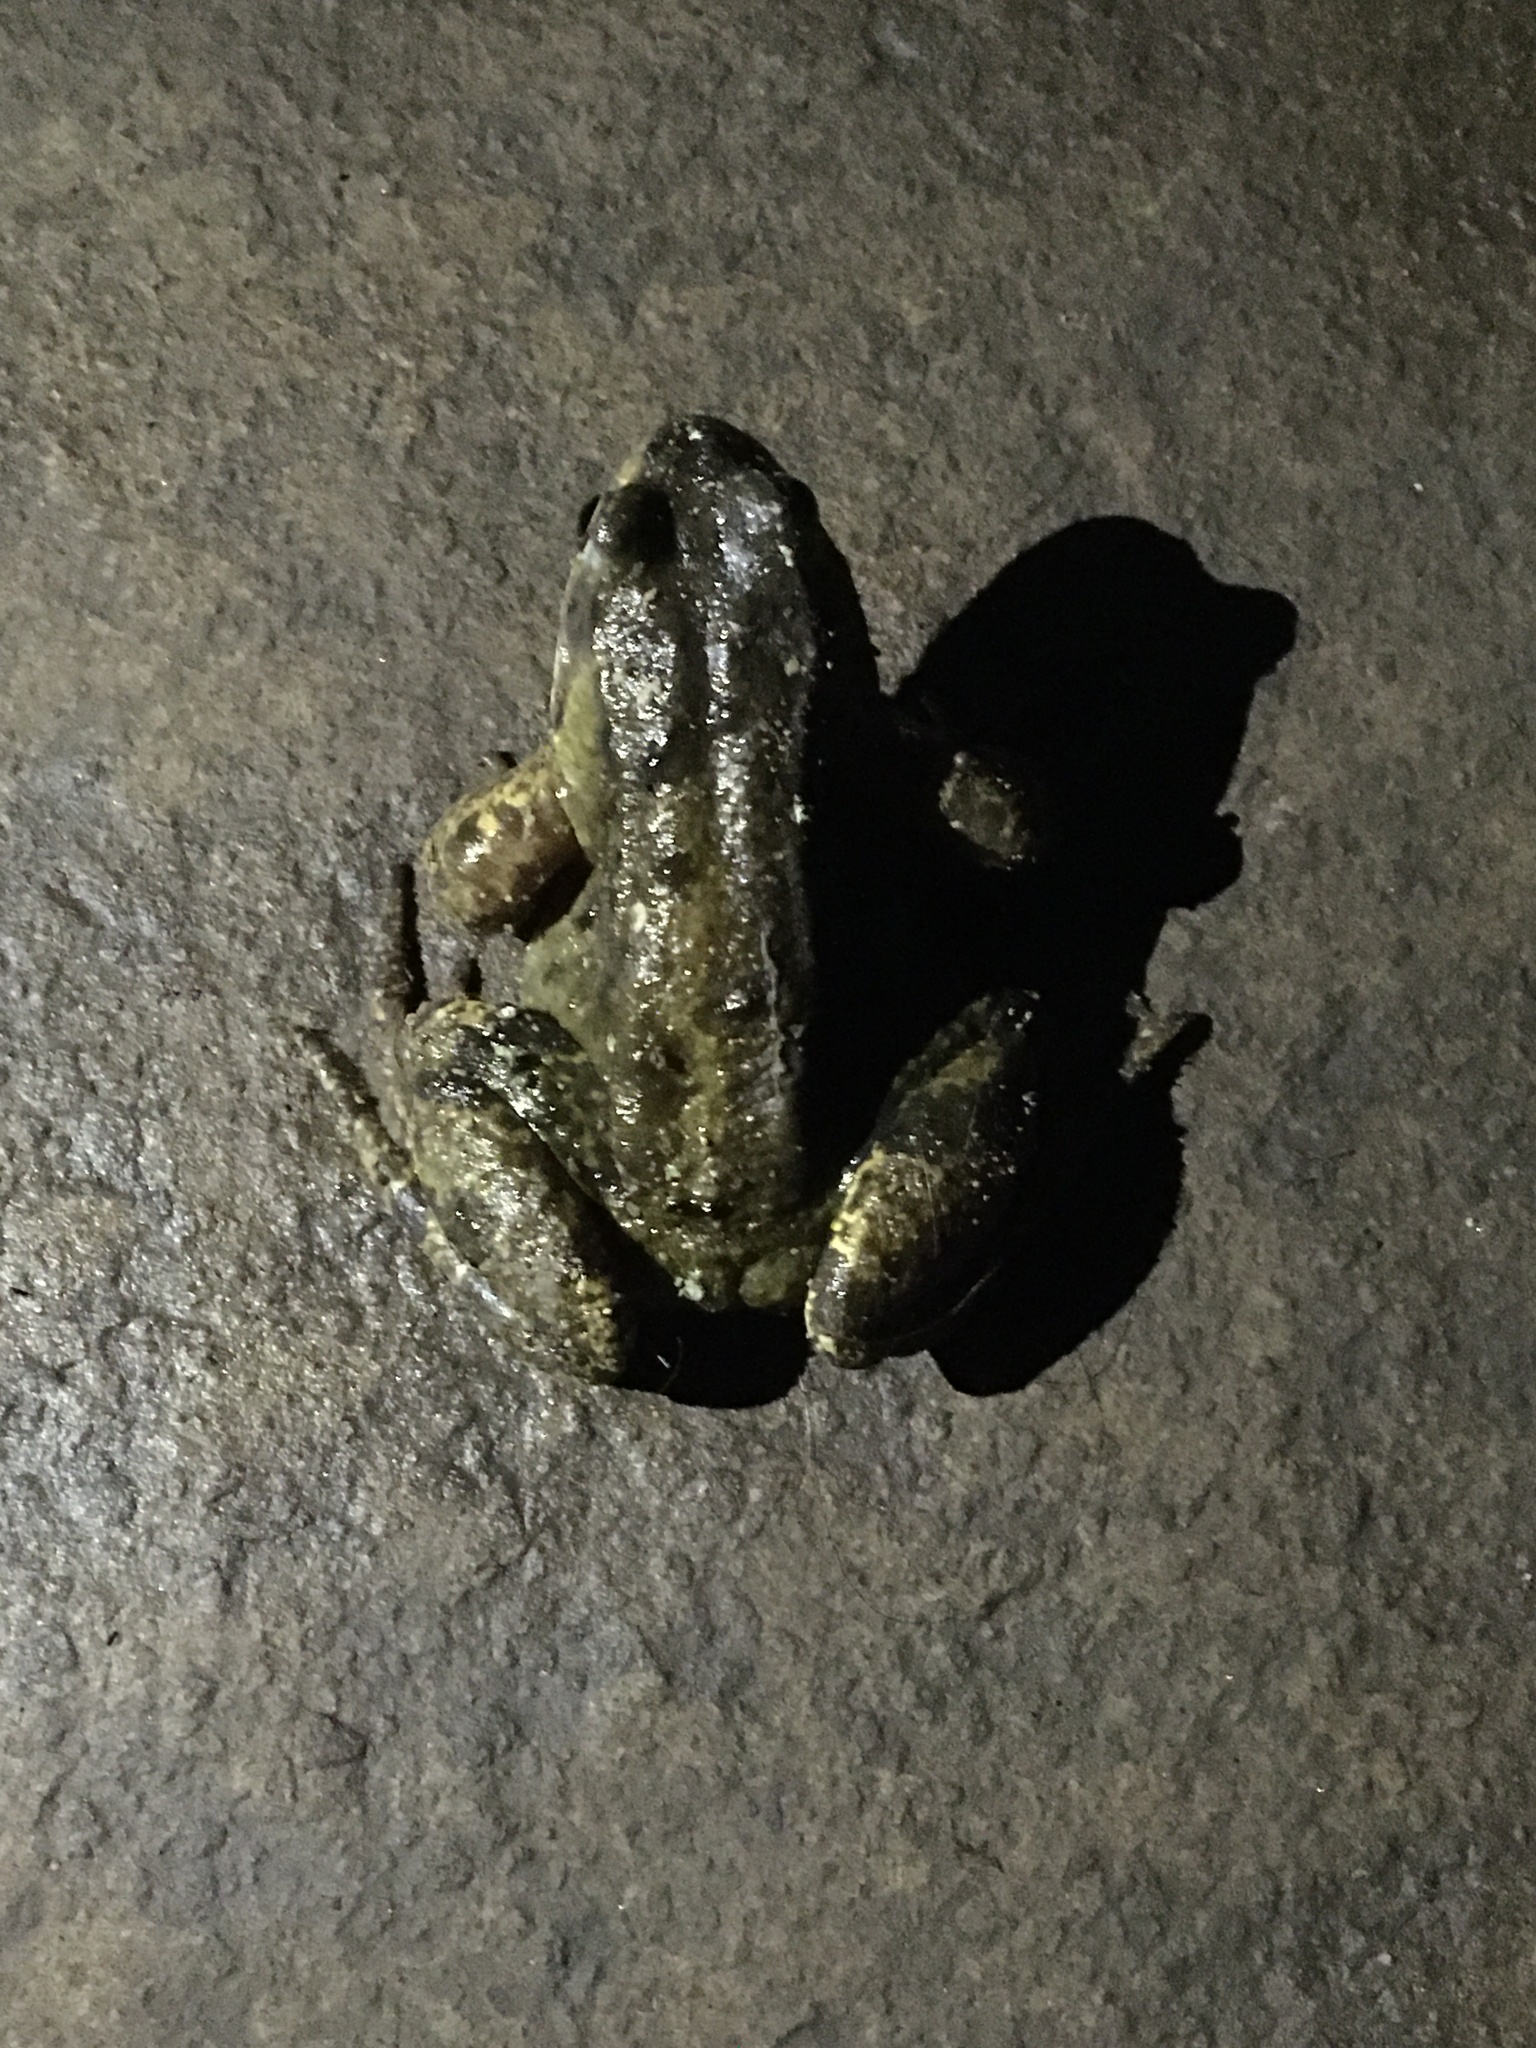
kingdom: Animalia
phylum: Chordata
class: Amphibia
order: Anura
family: Ranidae
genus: Rana
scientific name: Rana temporaria
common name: Common frog
